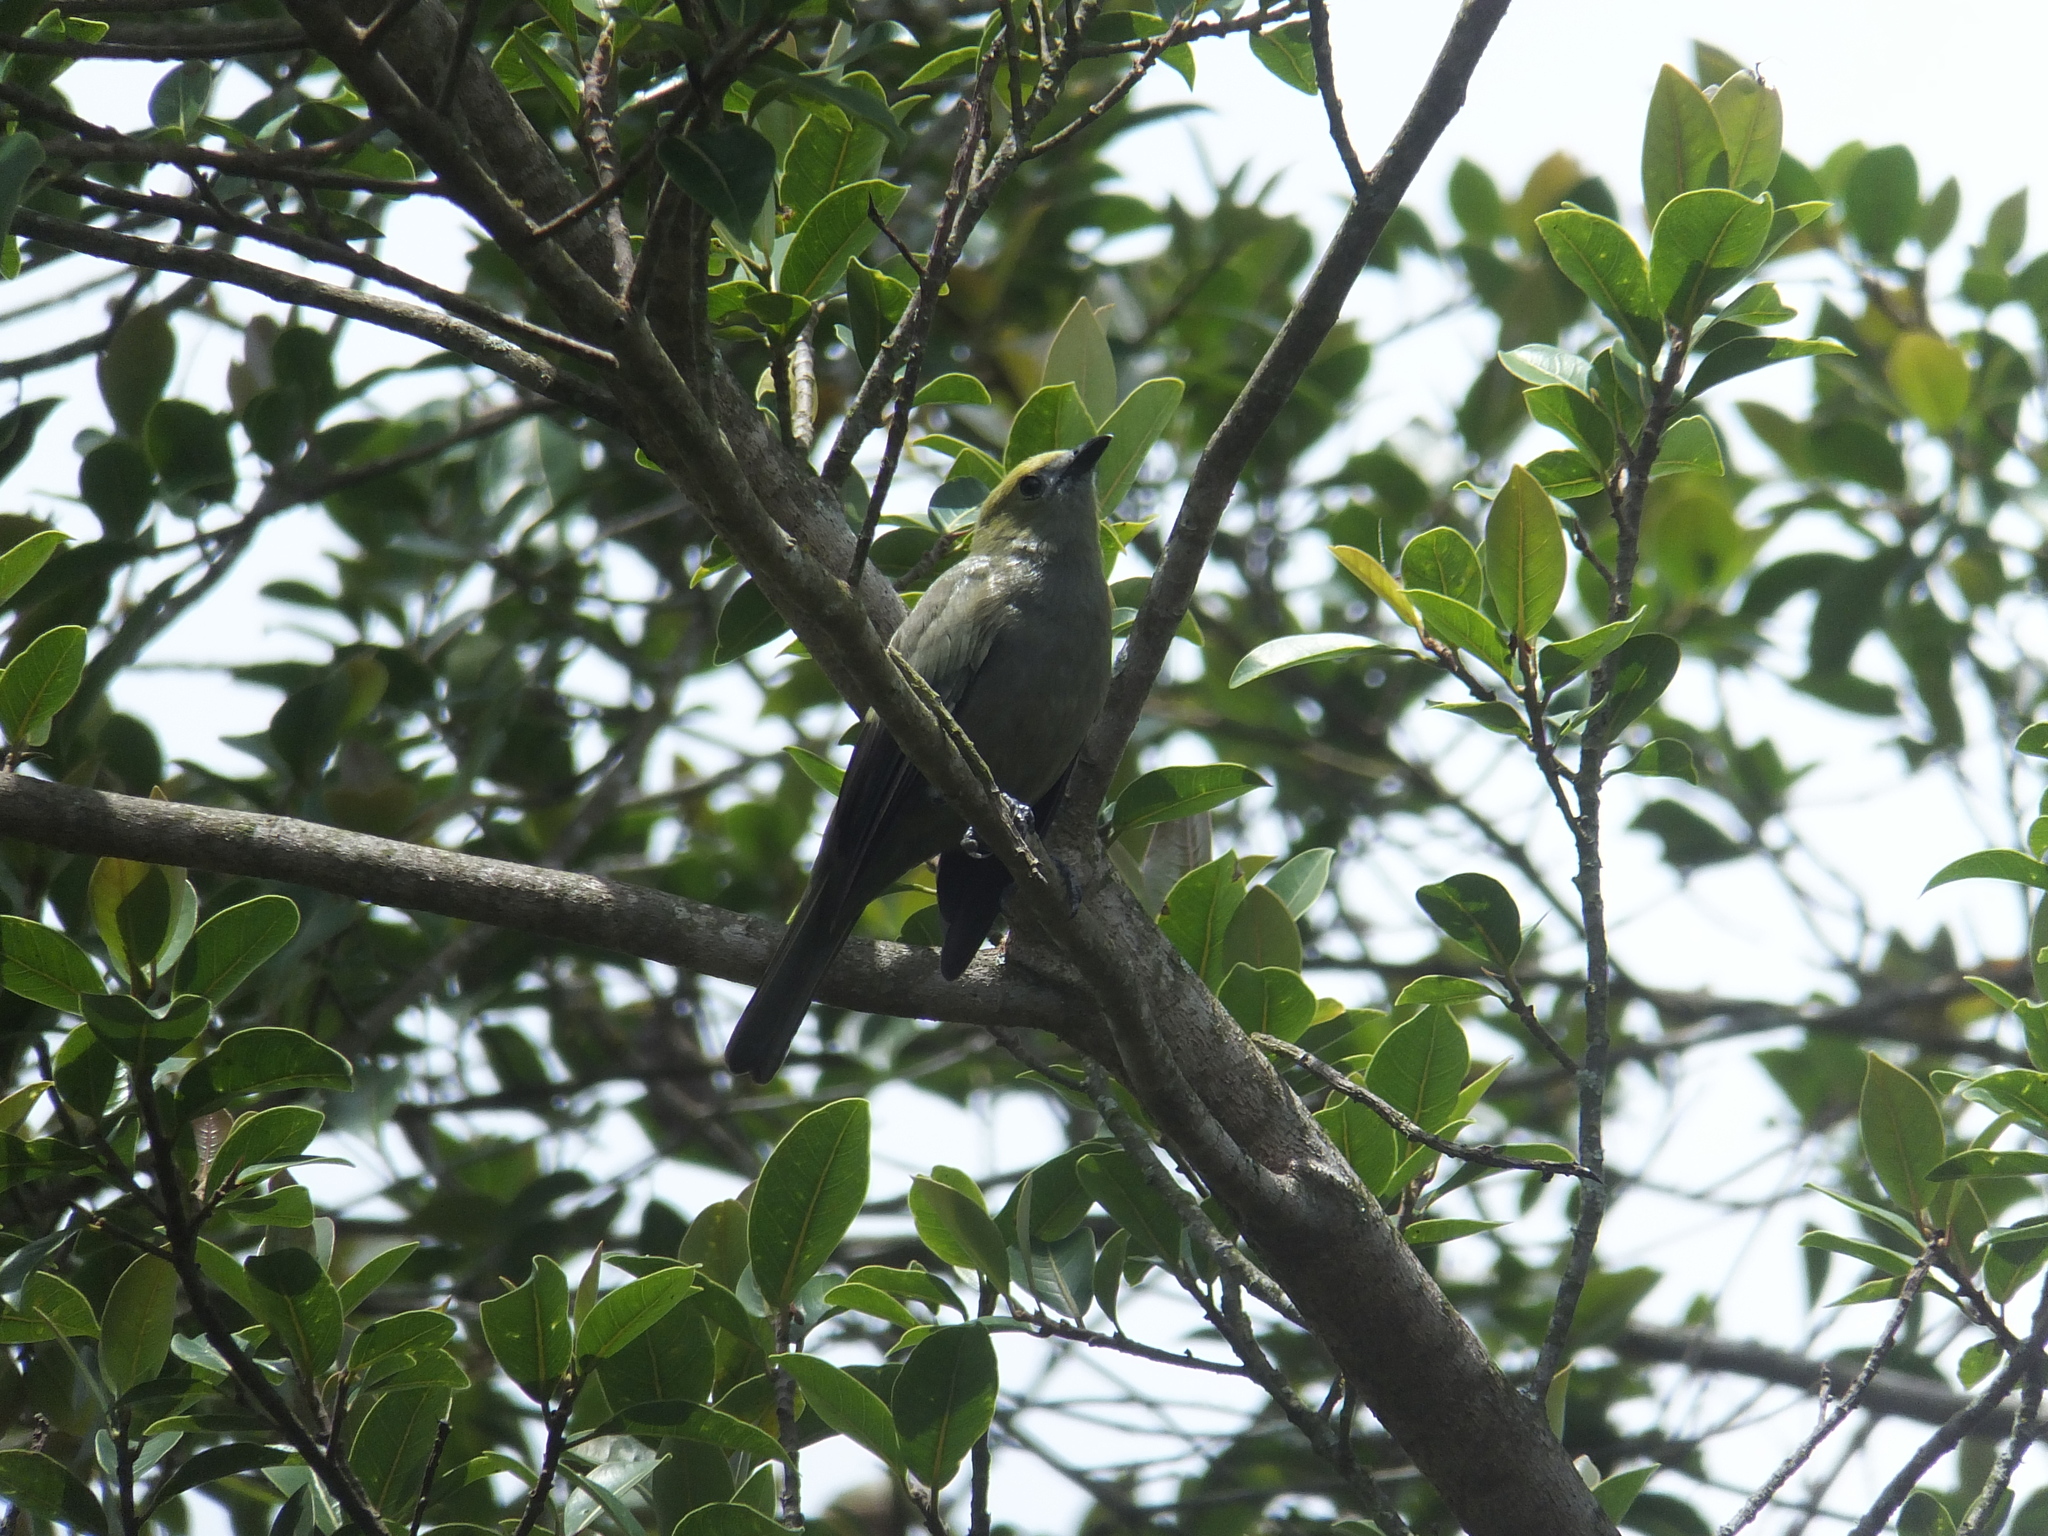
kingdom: Animalia
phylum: Chordata
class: Aves
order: Passeriformes
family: Thraupidae
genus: Thraupis
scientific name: Thraupis palmarum
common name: Palm tanager
